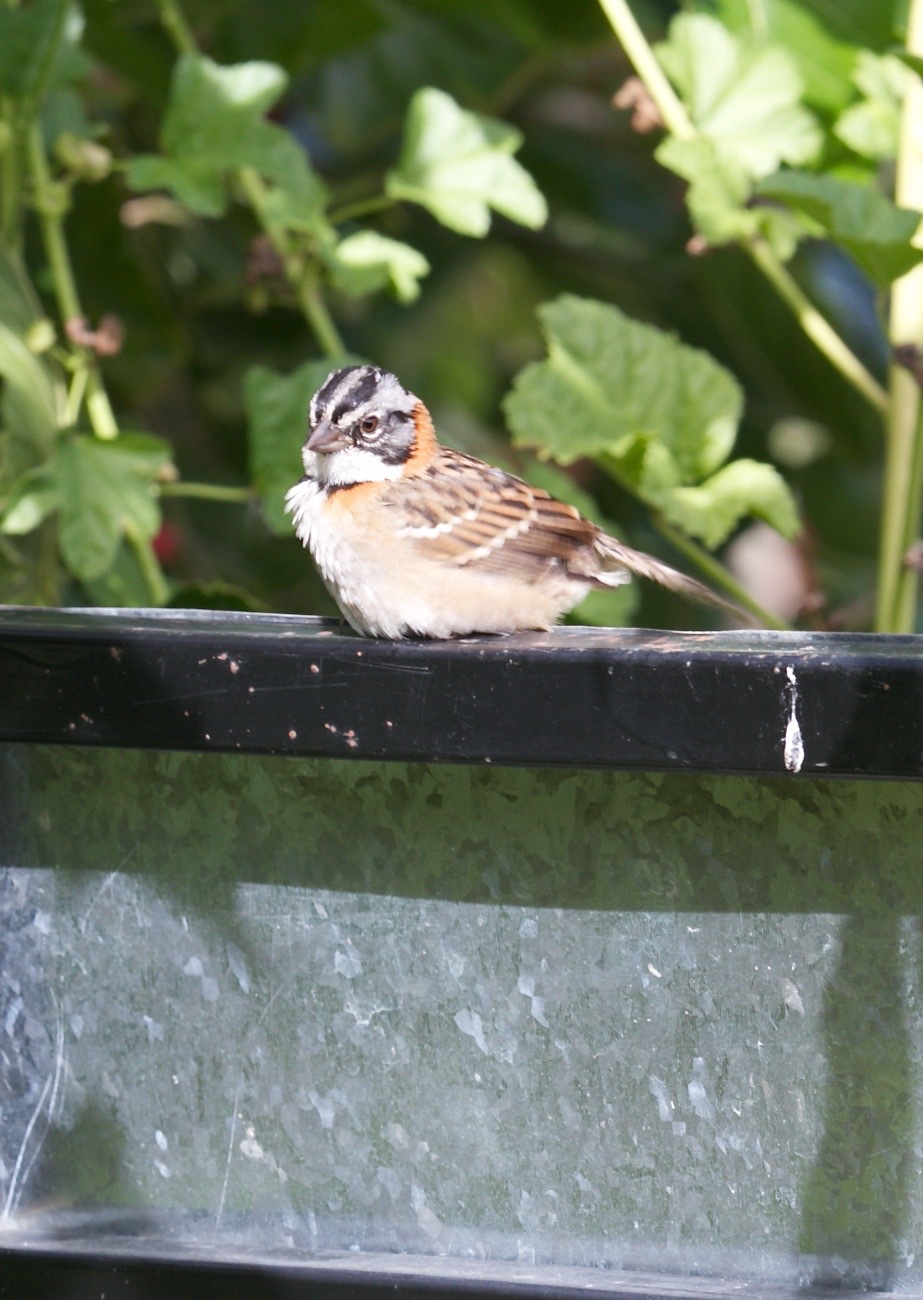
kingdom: Animalia
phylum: Chordata
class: Aves
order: Passeriformes
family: Passerellidae
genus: Zonotrichia
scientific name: Zonotrichia capensis
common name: Rufous-collared sparrow
